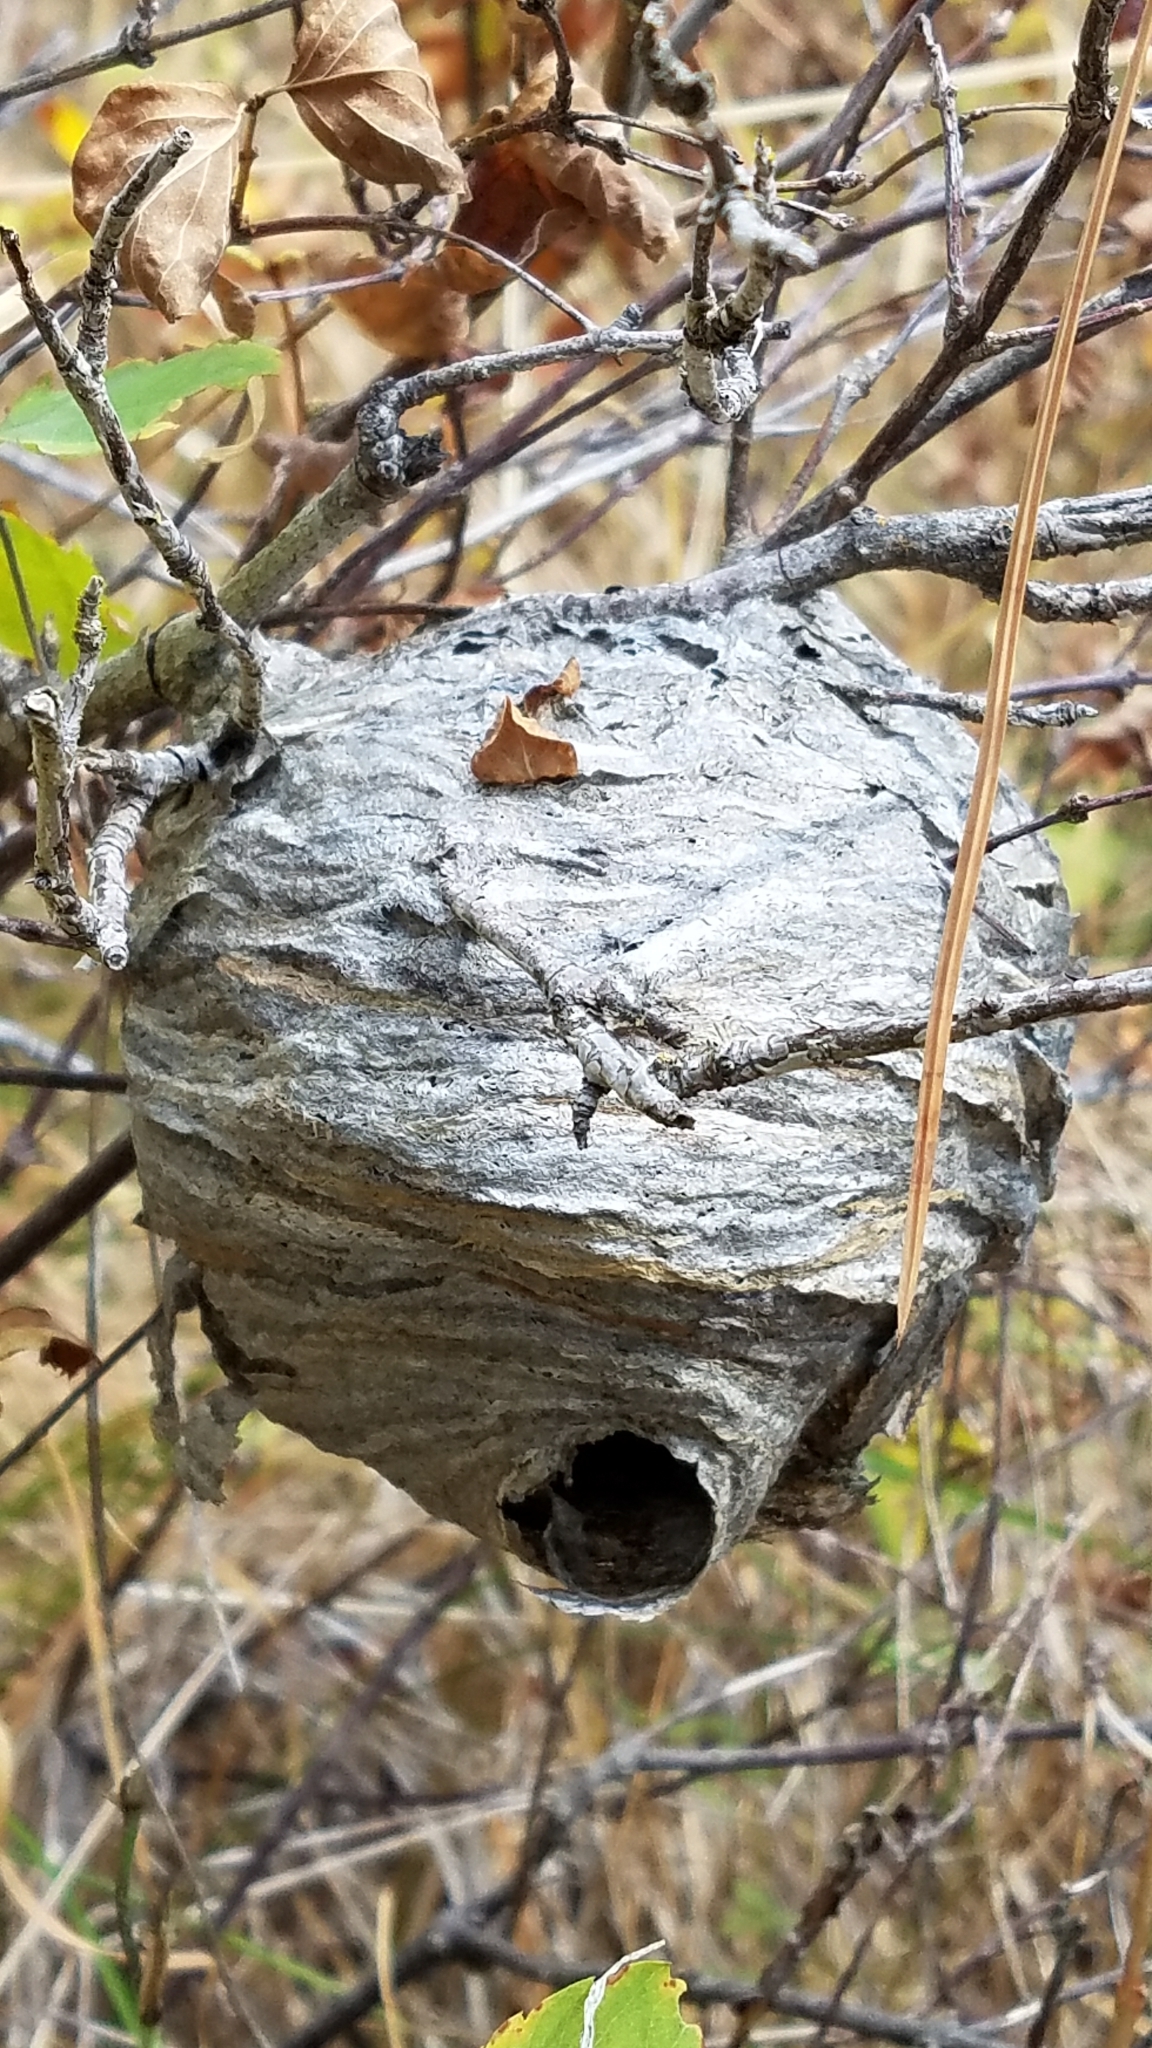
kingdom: Animalia
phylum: Arthropoda
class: Insecta
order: Hymenoptera
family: Vespidae
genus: Dolichovespula
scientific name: Dolichovespula
